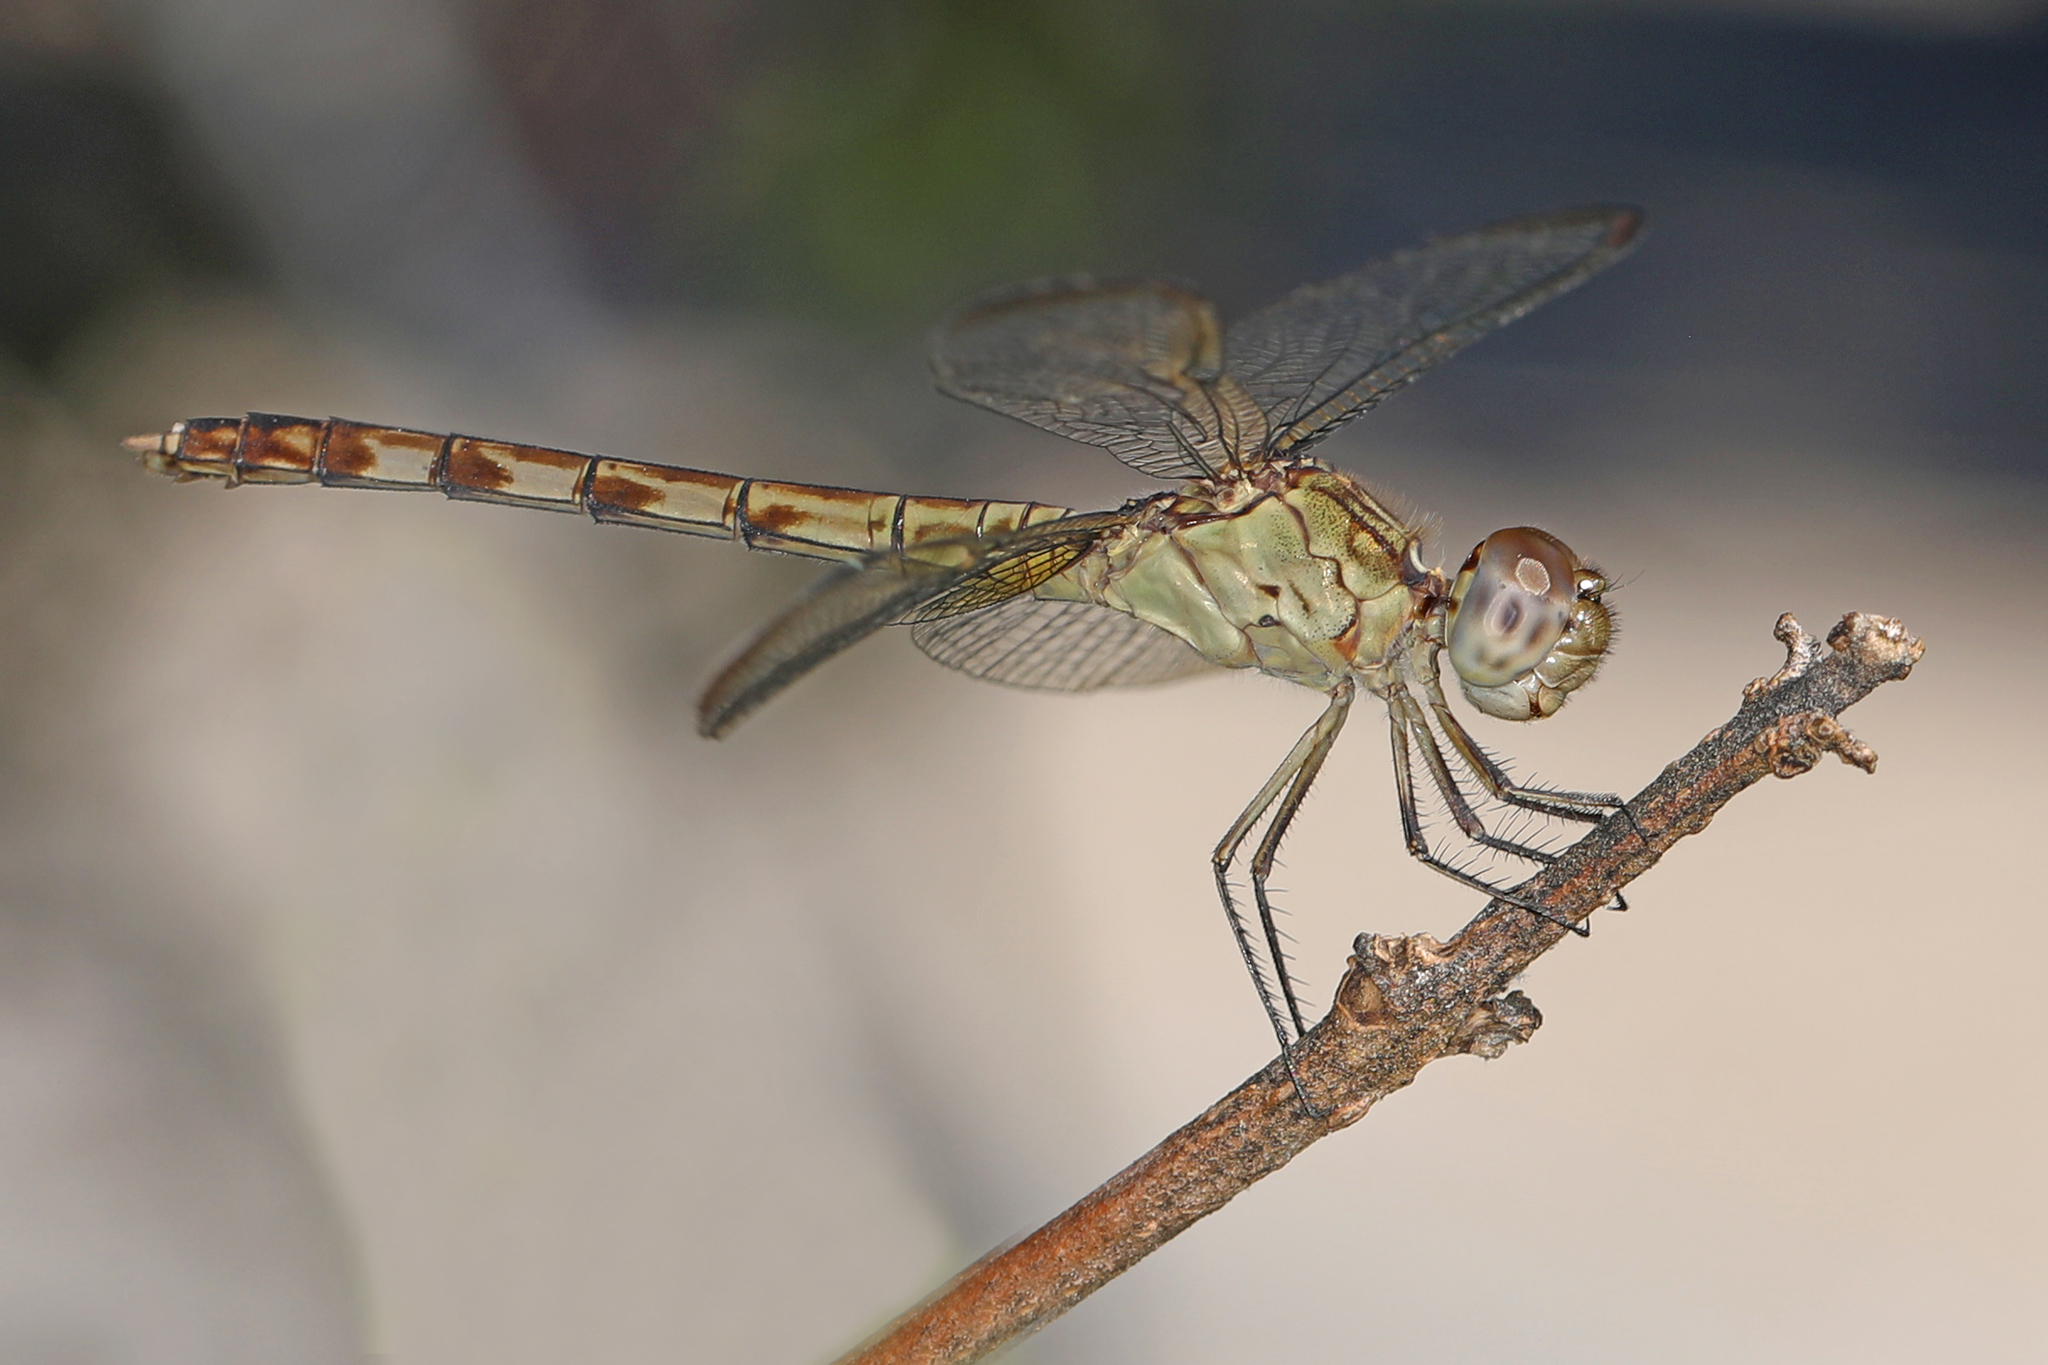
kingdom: Animalia
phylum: Arthropoda
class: Insecta
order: Odonata
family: Libellulidae
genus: Erythrodiplax
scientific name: Erythrodiplax umbrata
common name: Band-winged dragonlet
